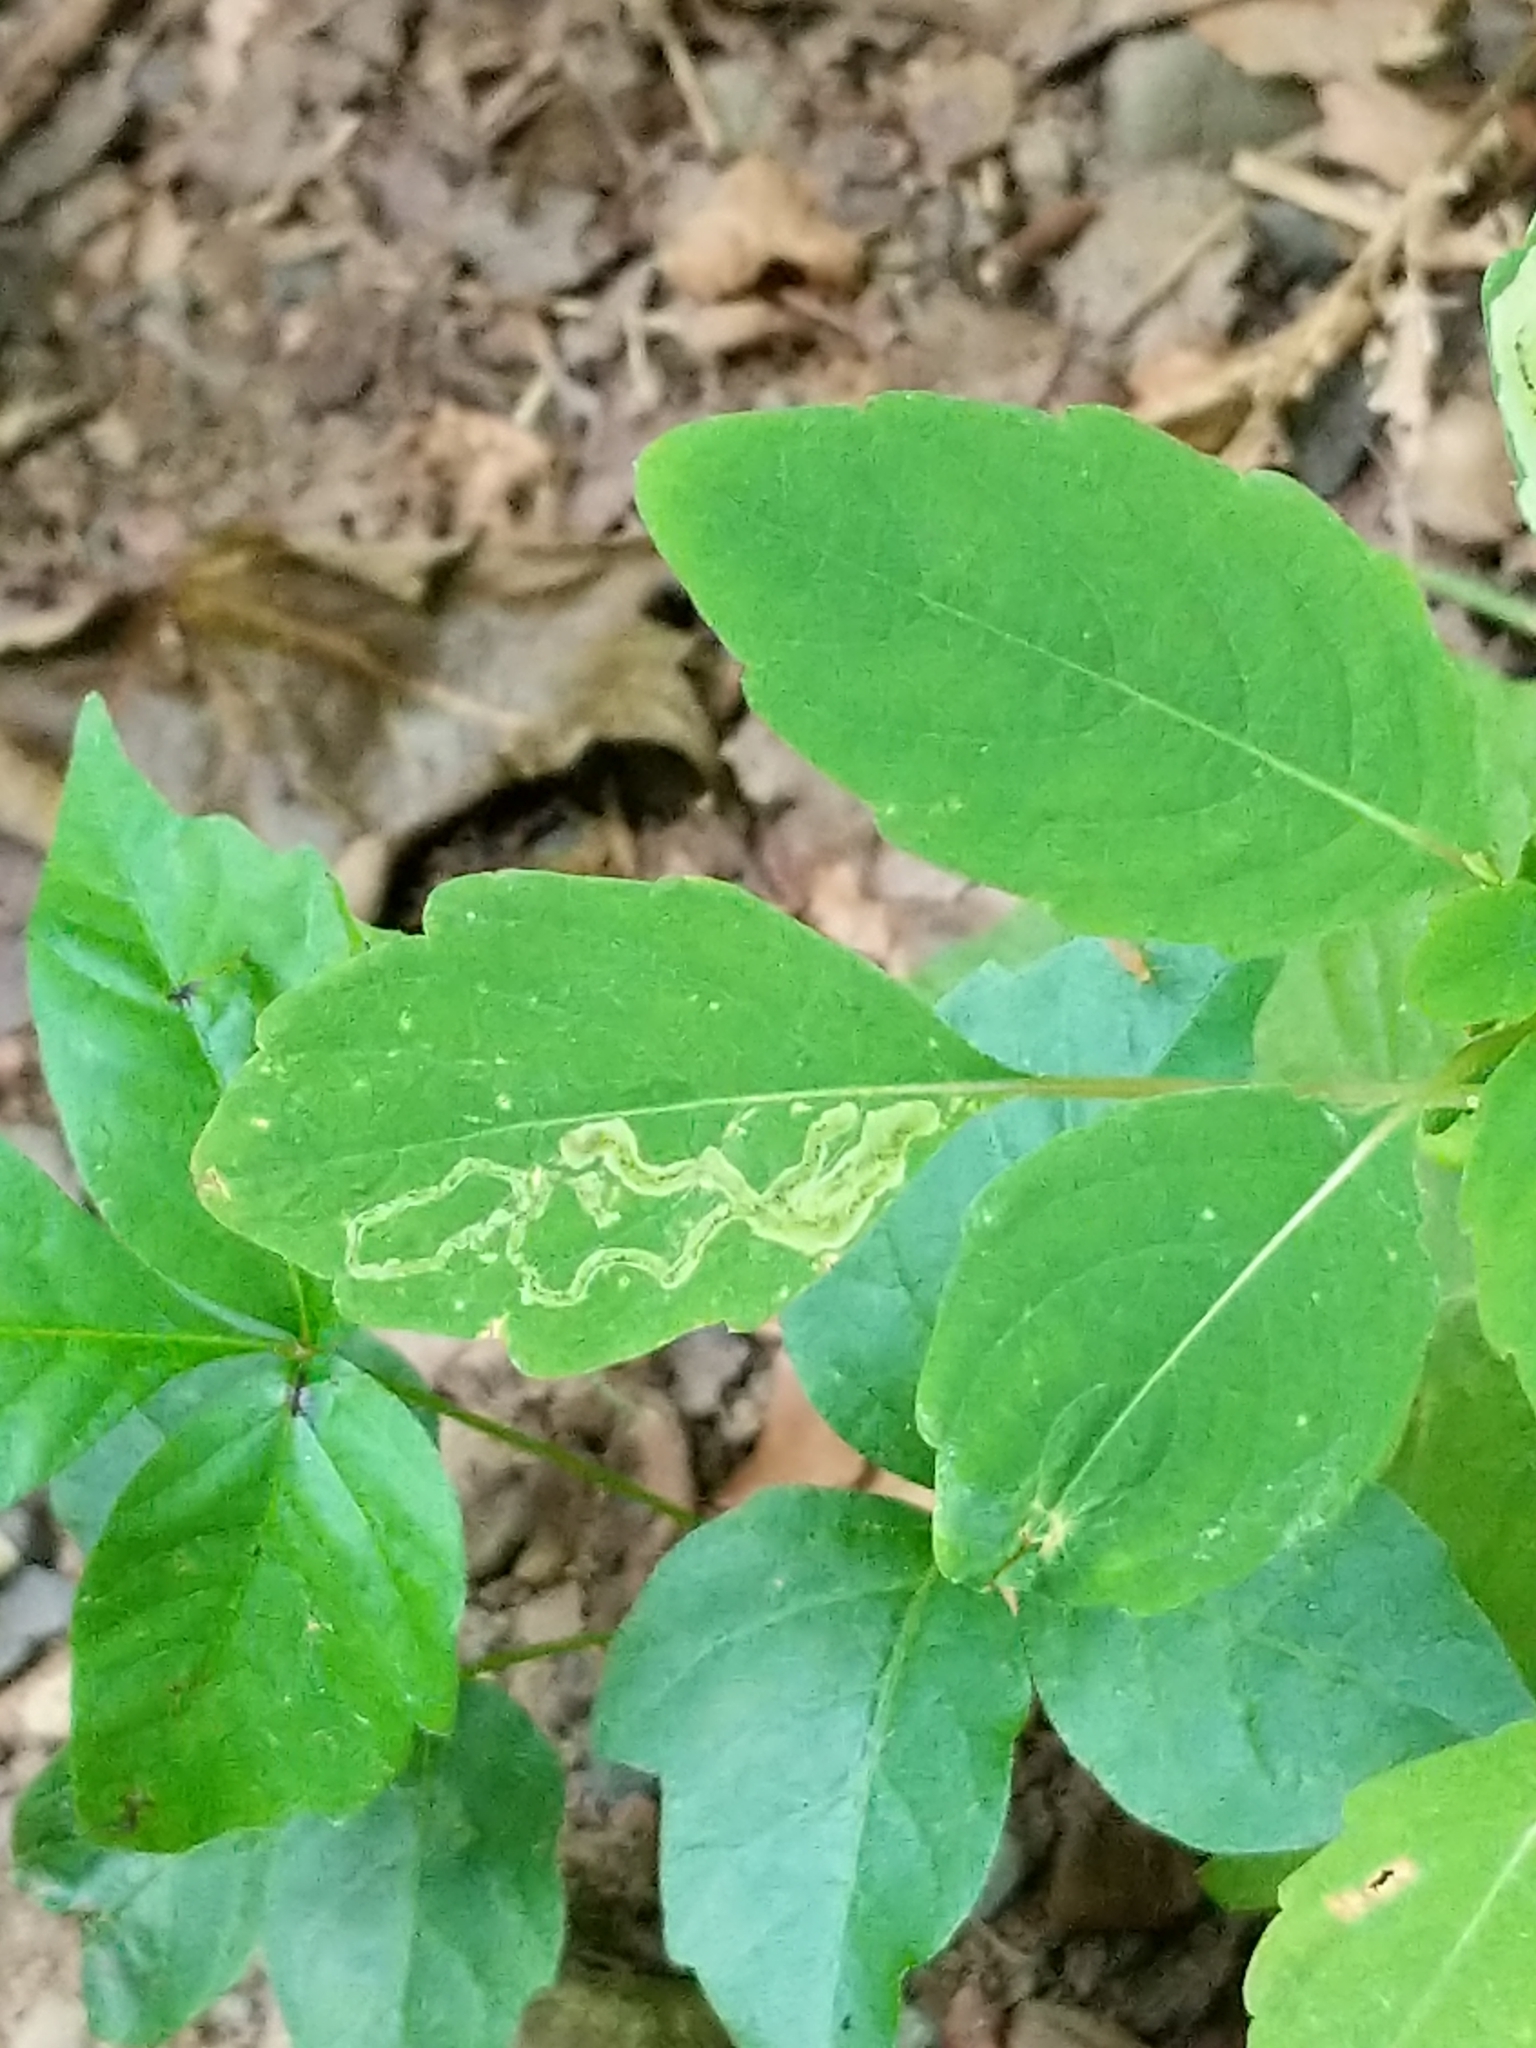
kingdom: Animalia
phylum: Arthropoda
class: Insecta
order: Diptera
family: Agromyzidae
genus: Phytoliriomyza
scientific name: Phytoliriomyza melampyga
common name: Jewelweed leaf-miner fly
